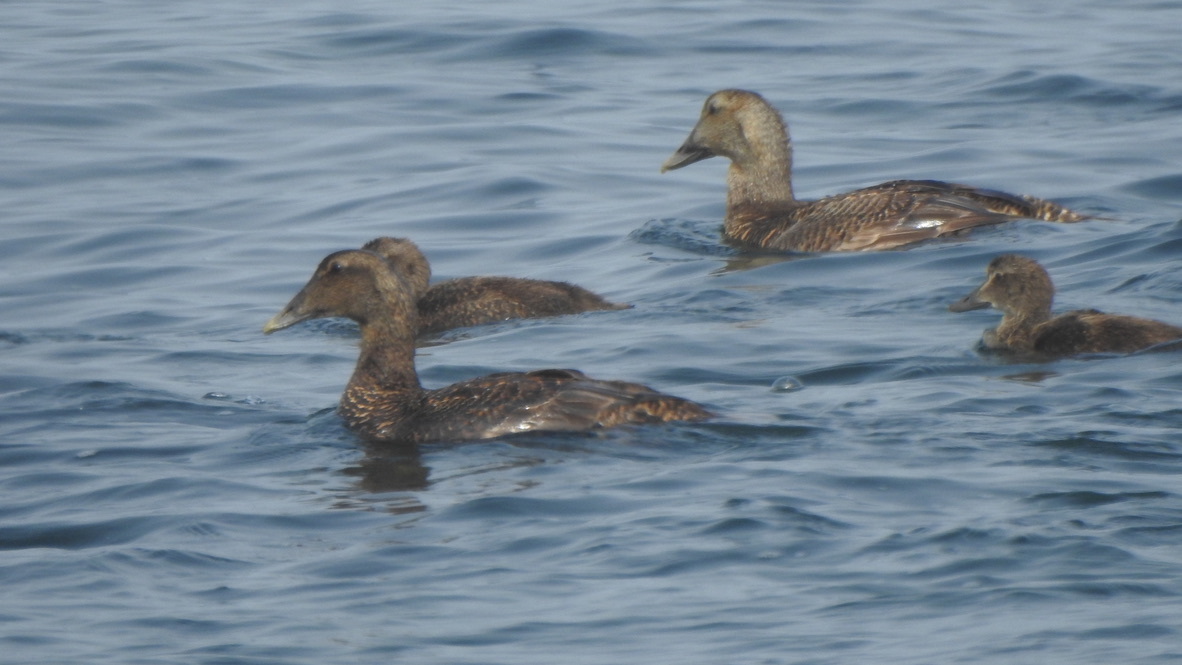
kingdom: Animalia
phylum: Chordata
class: Aves
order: Anseriformes
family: Anatidae
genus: Somateria
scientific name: Somateria mollissima
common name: Common eider
